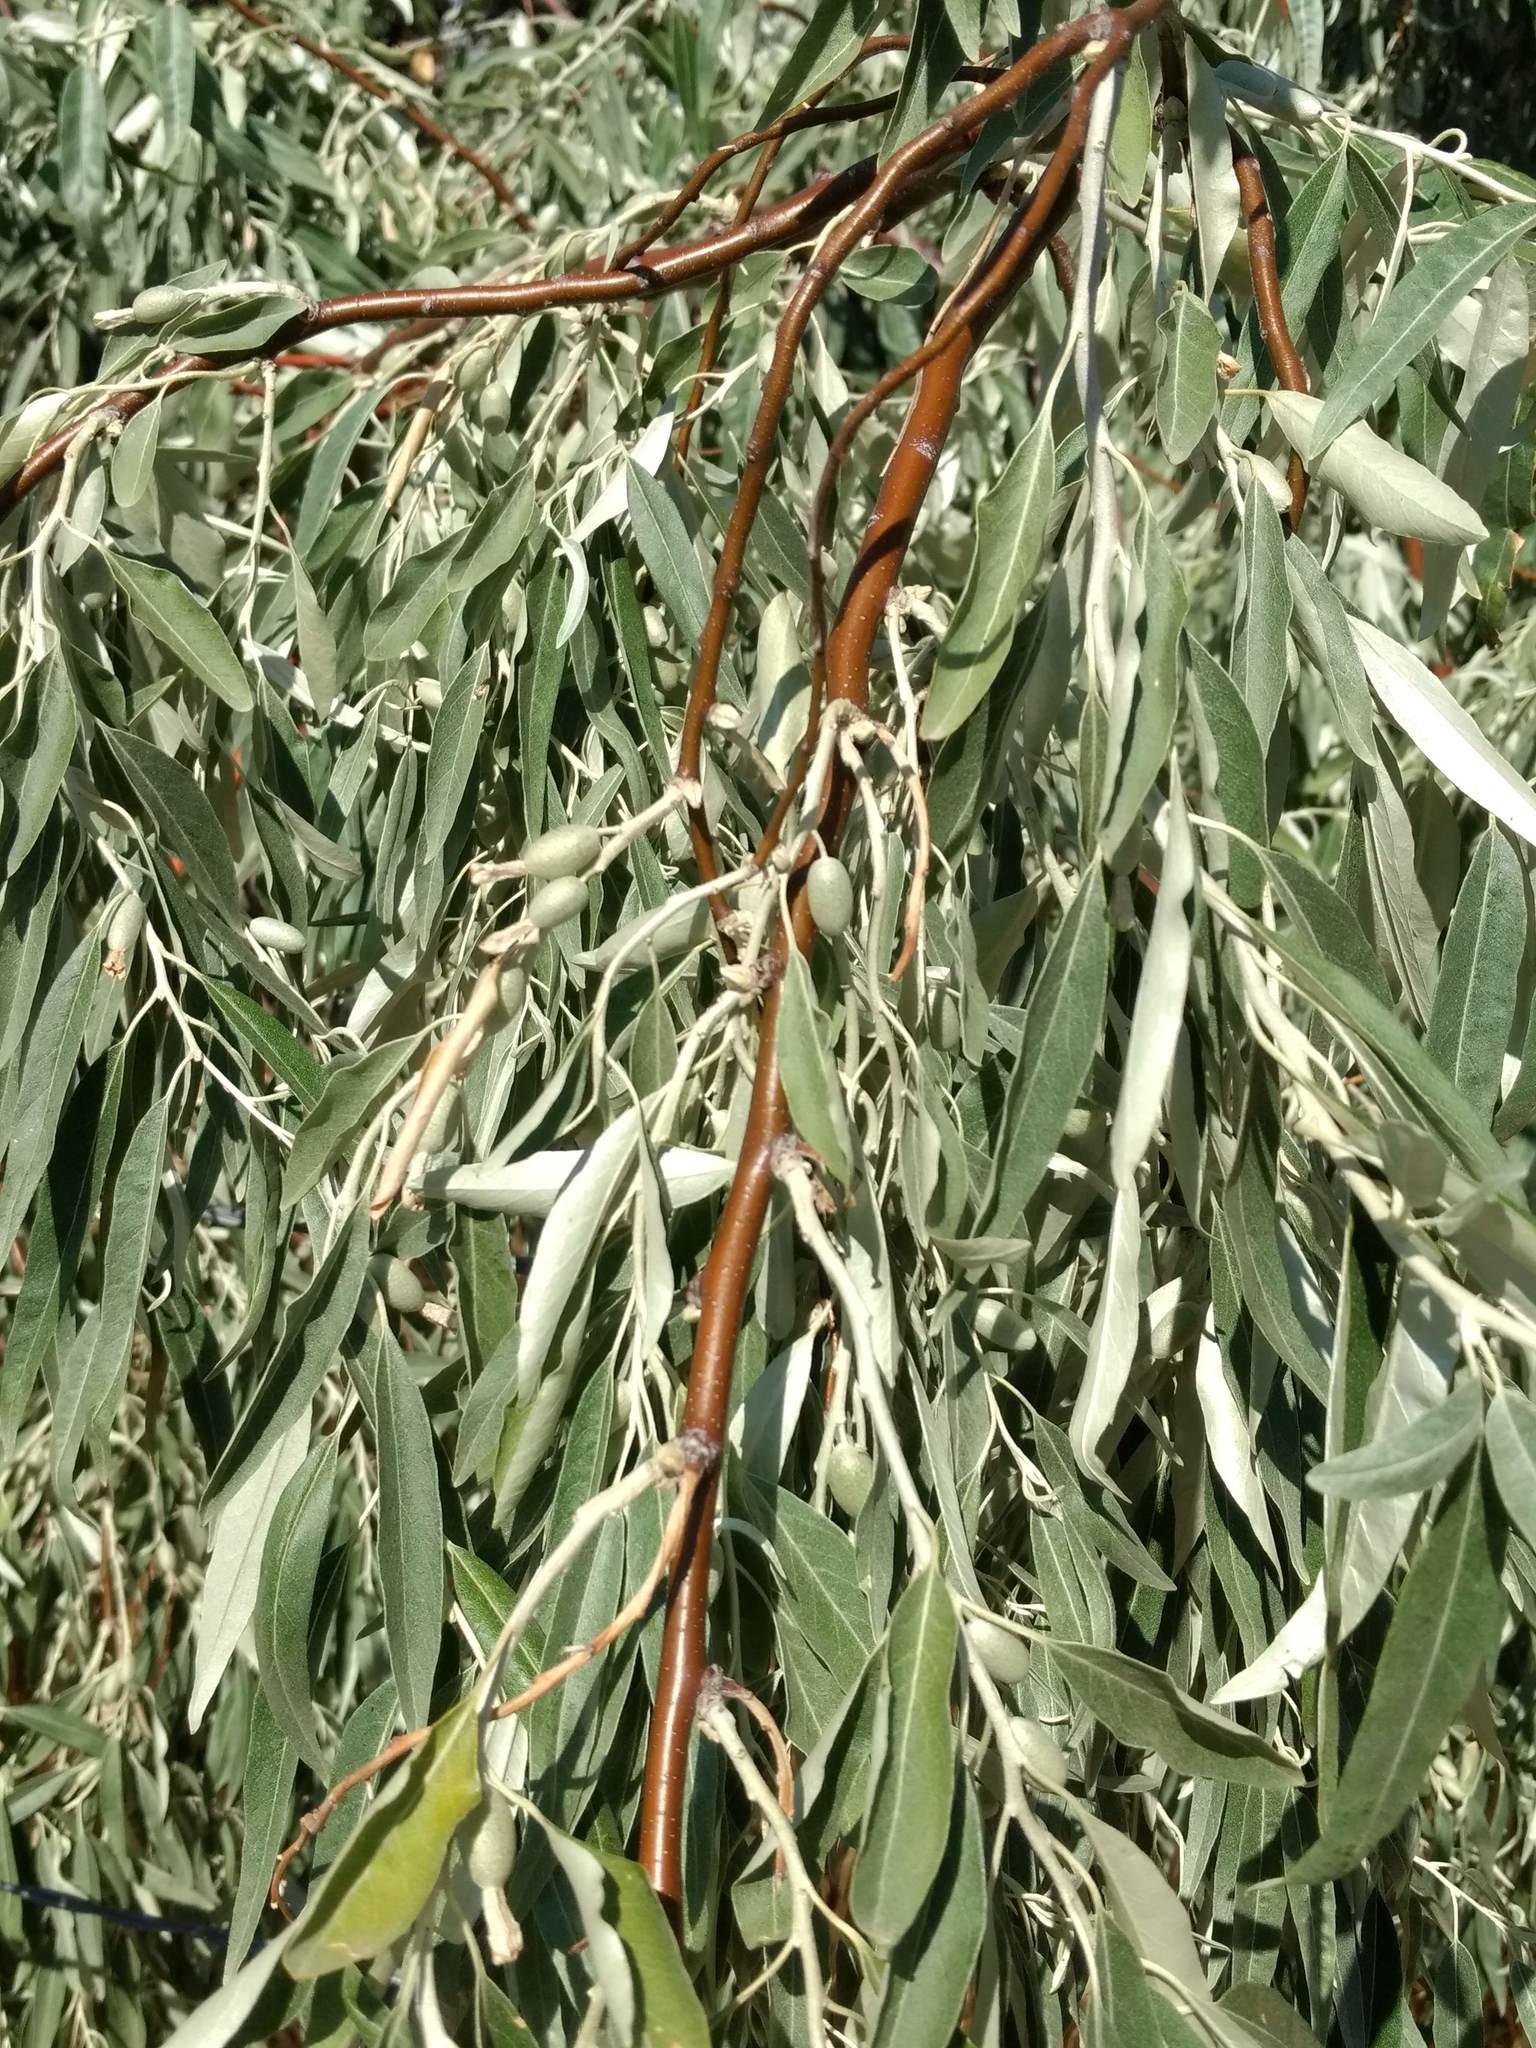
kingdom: Plantae
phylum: Tracheophyta
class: Magnoliopsida
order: Rosales
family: Elaeagnaceae
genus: Elaeagnus
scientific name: Elaeagnus angustifolia
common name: Russian olive
